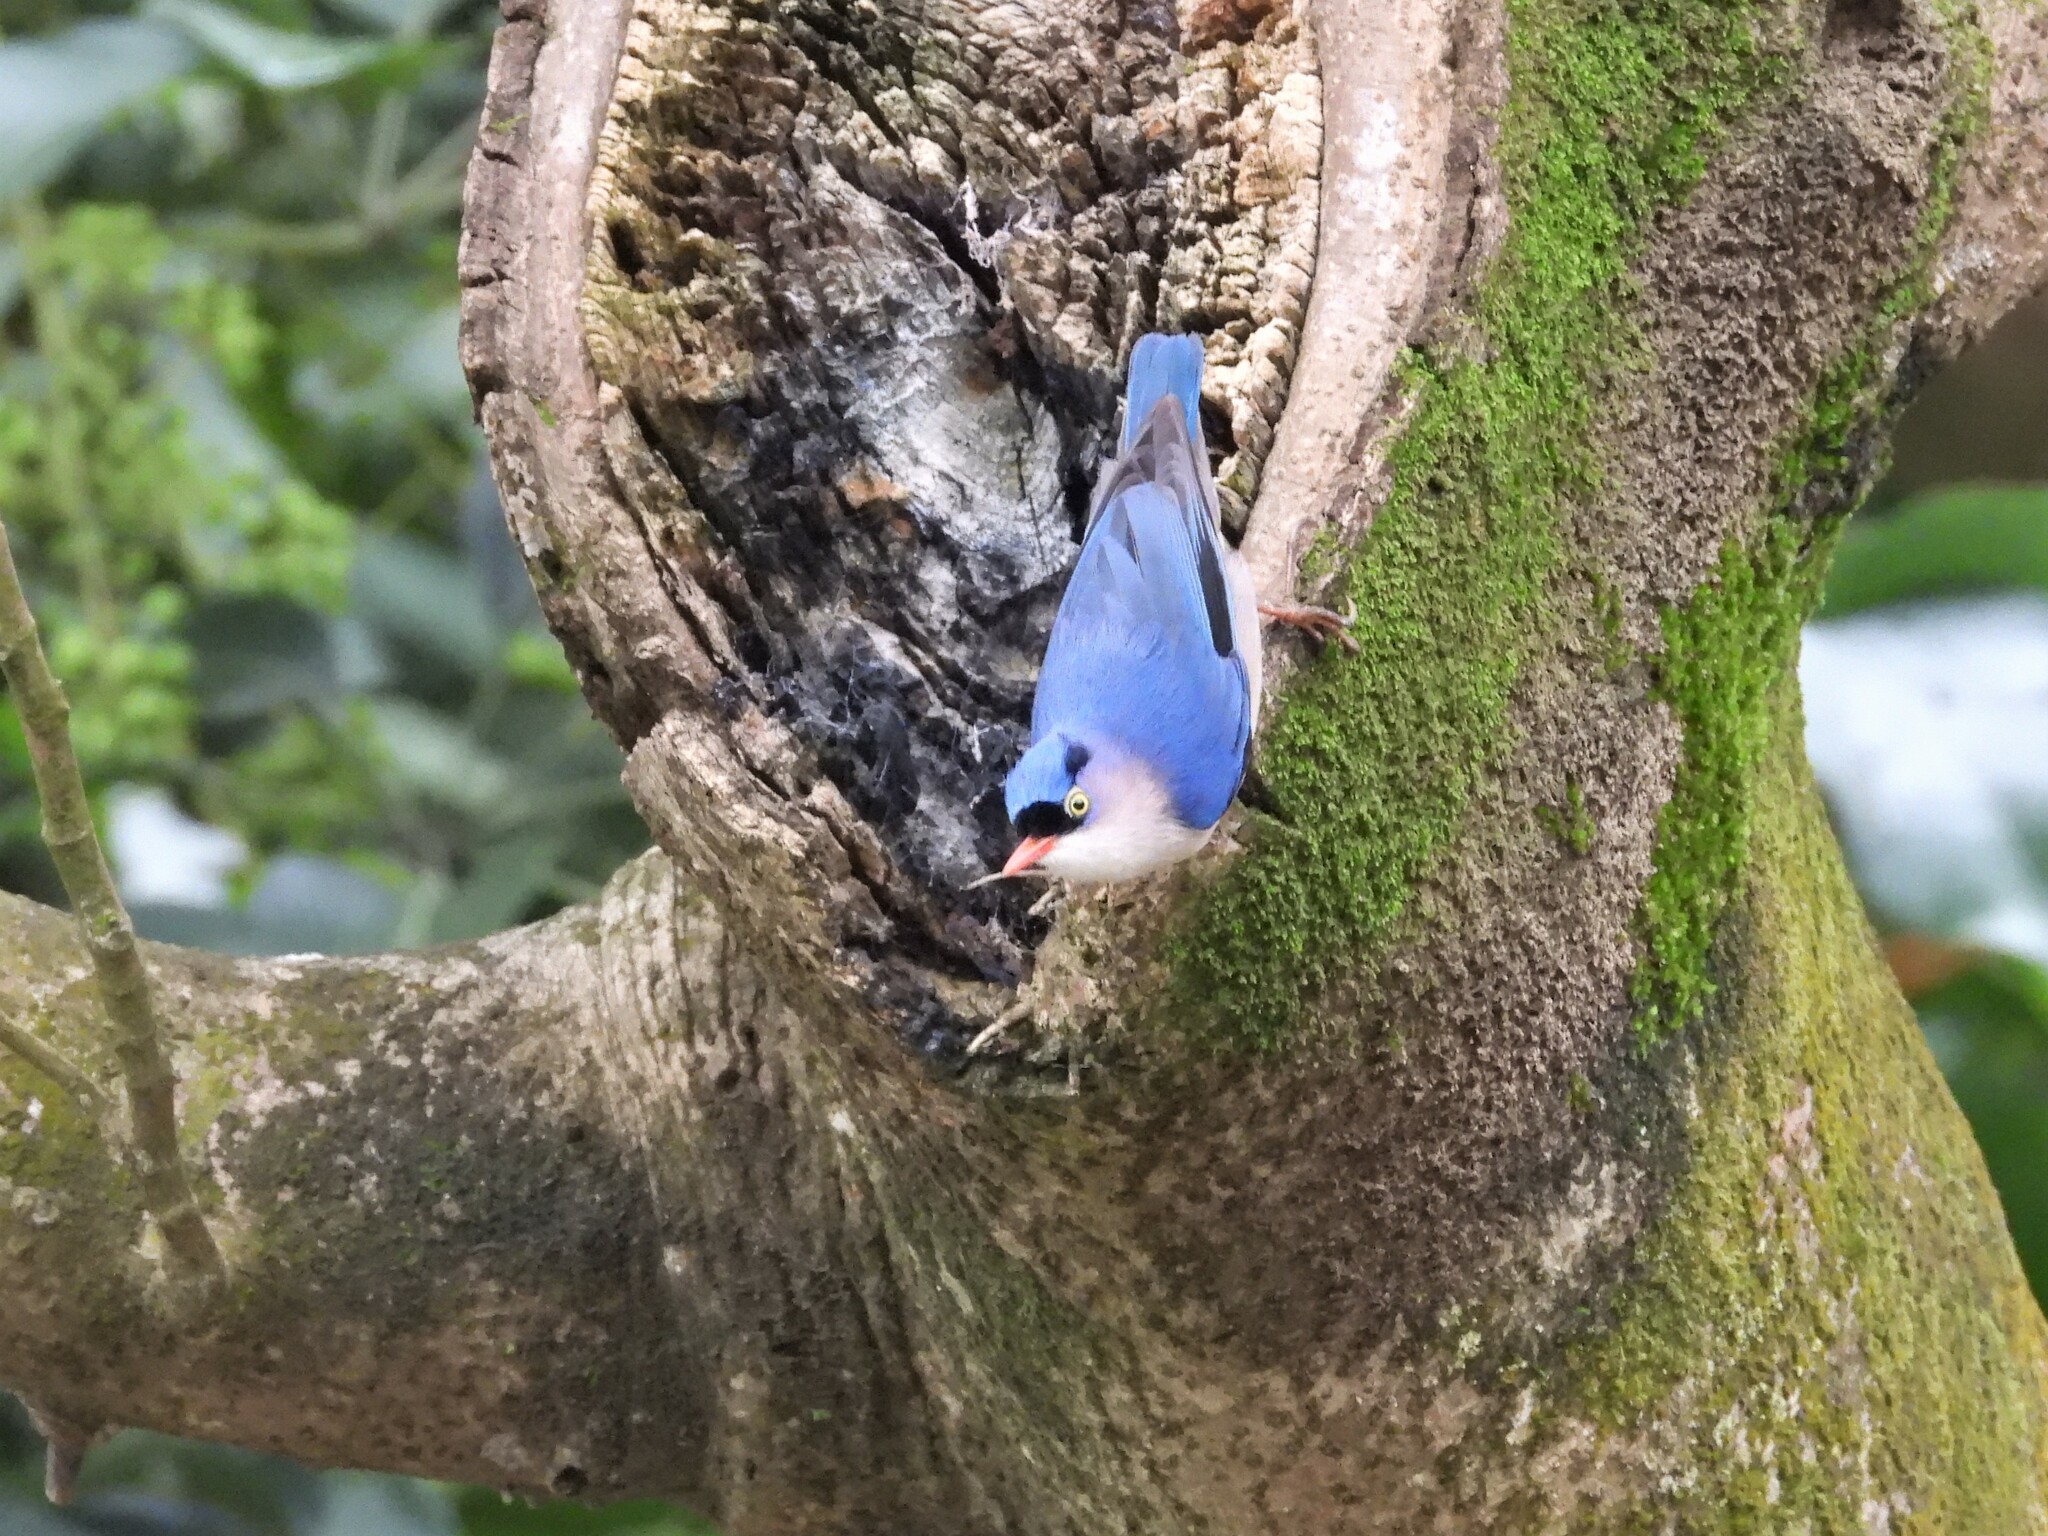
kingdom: Animalia
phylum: Chordata
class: Aves
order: Passeriformes
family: Sittidae
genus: Sitta
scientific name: Sitta frontalis
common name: Velvet-fronted nuthatch
